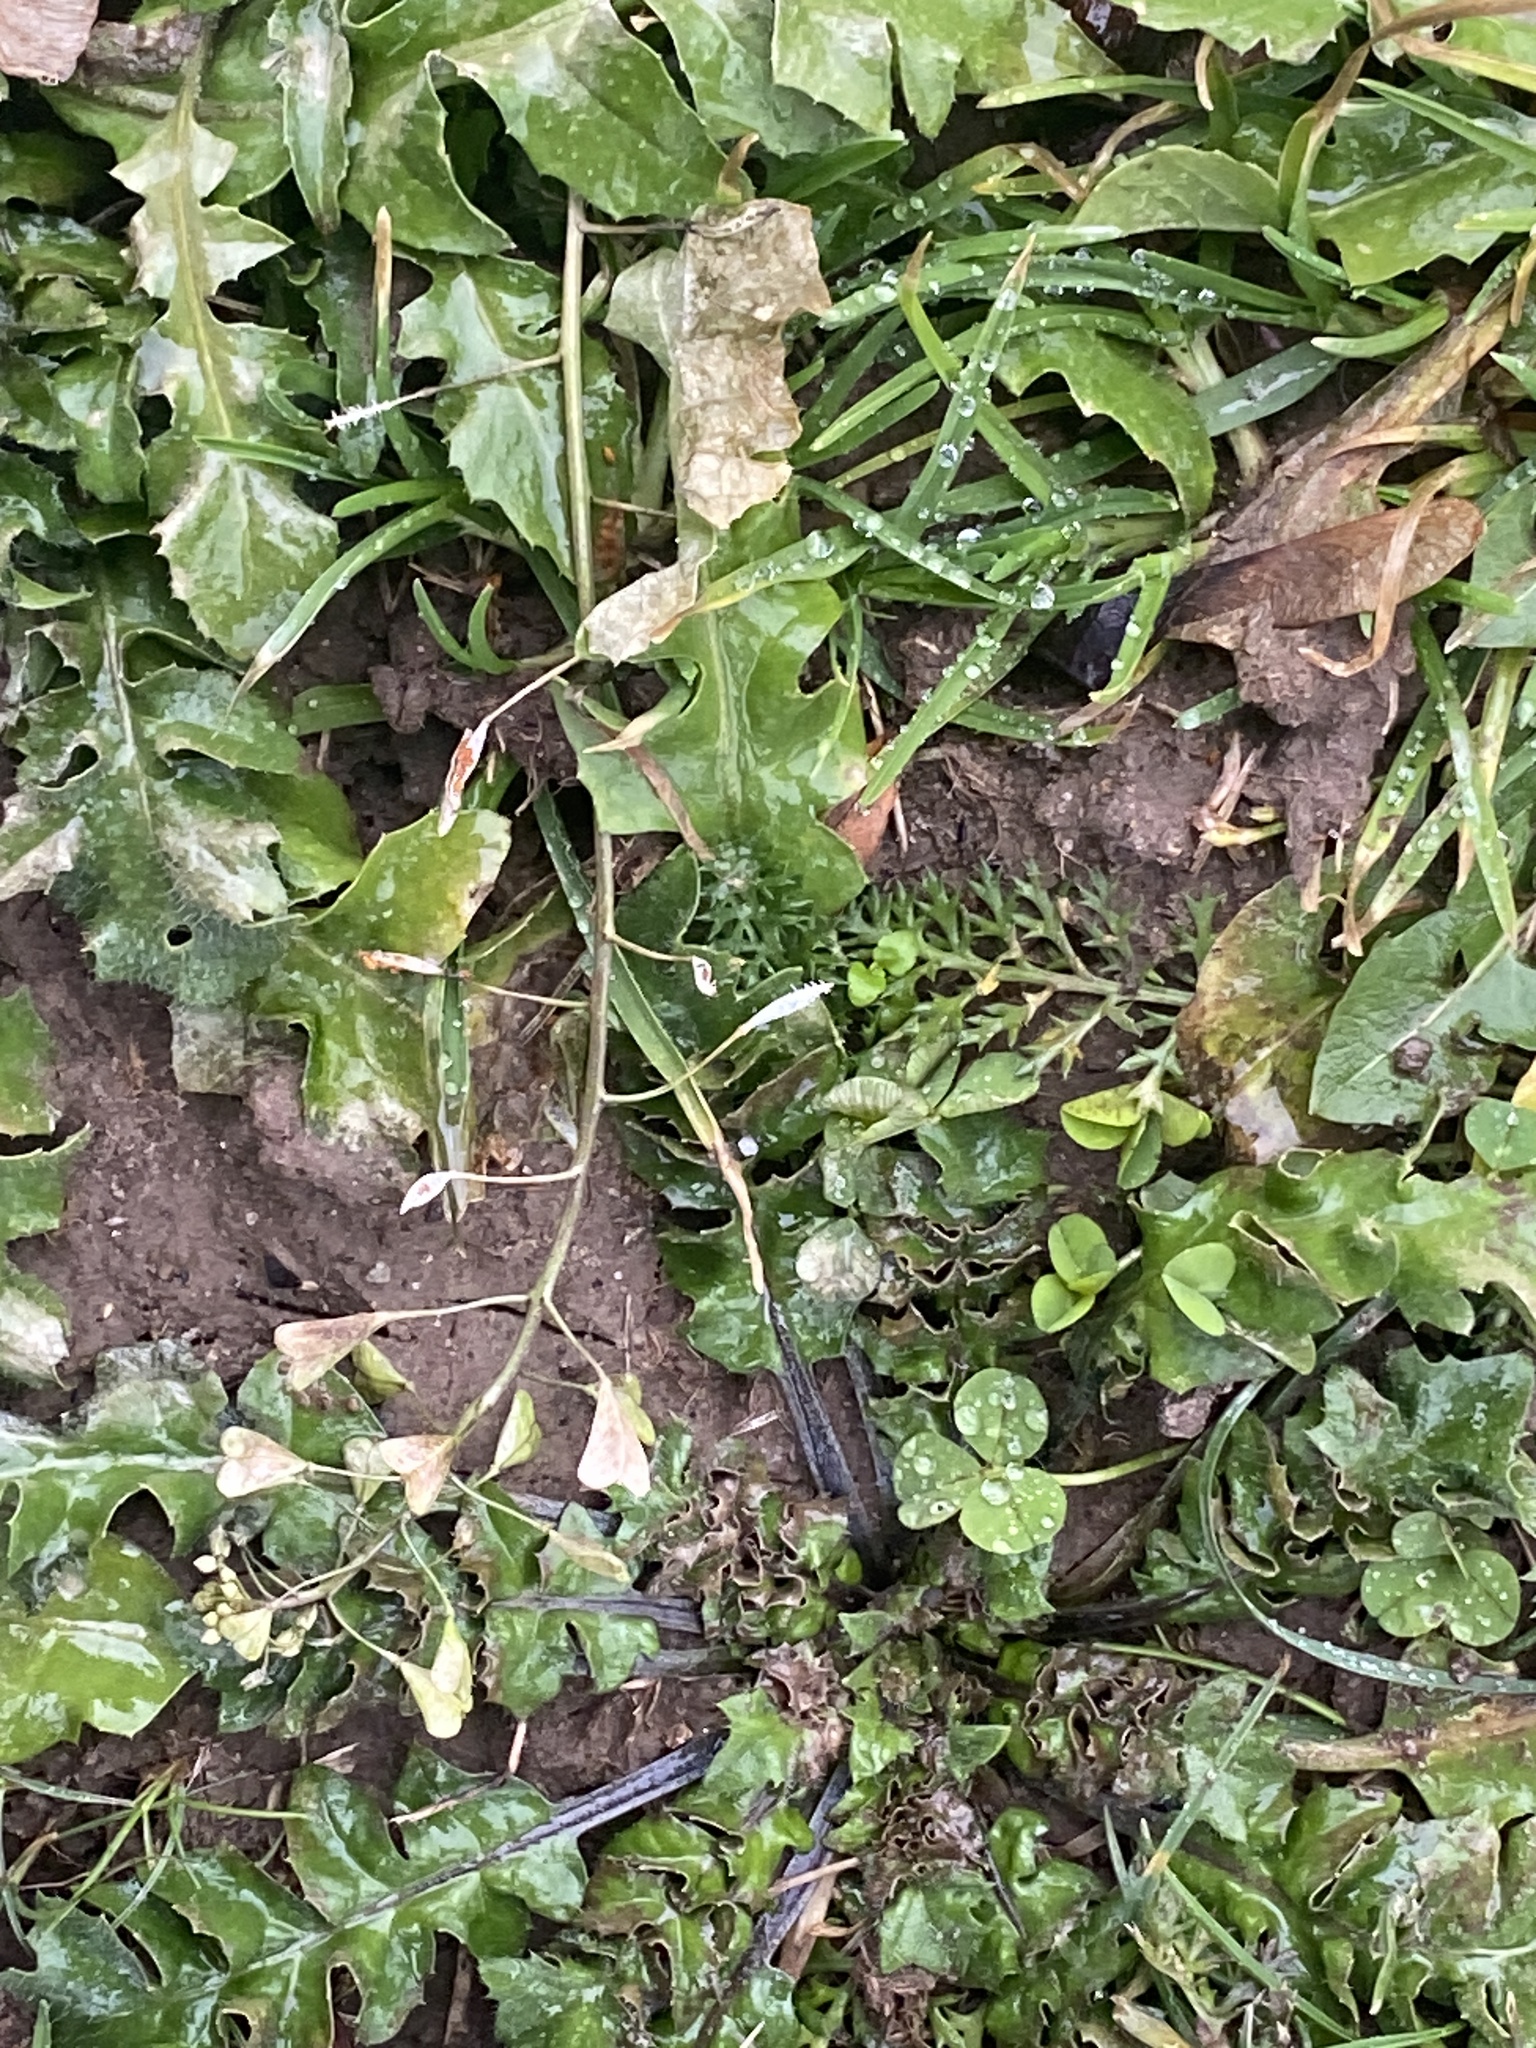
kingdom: Plantae
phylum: Tracheophyta
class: Magnoliopsida
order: Brassicales
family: Brassicaceae
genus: Capsella
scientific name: Capsella bursa-pastoris
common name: Shepherd's purse
